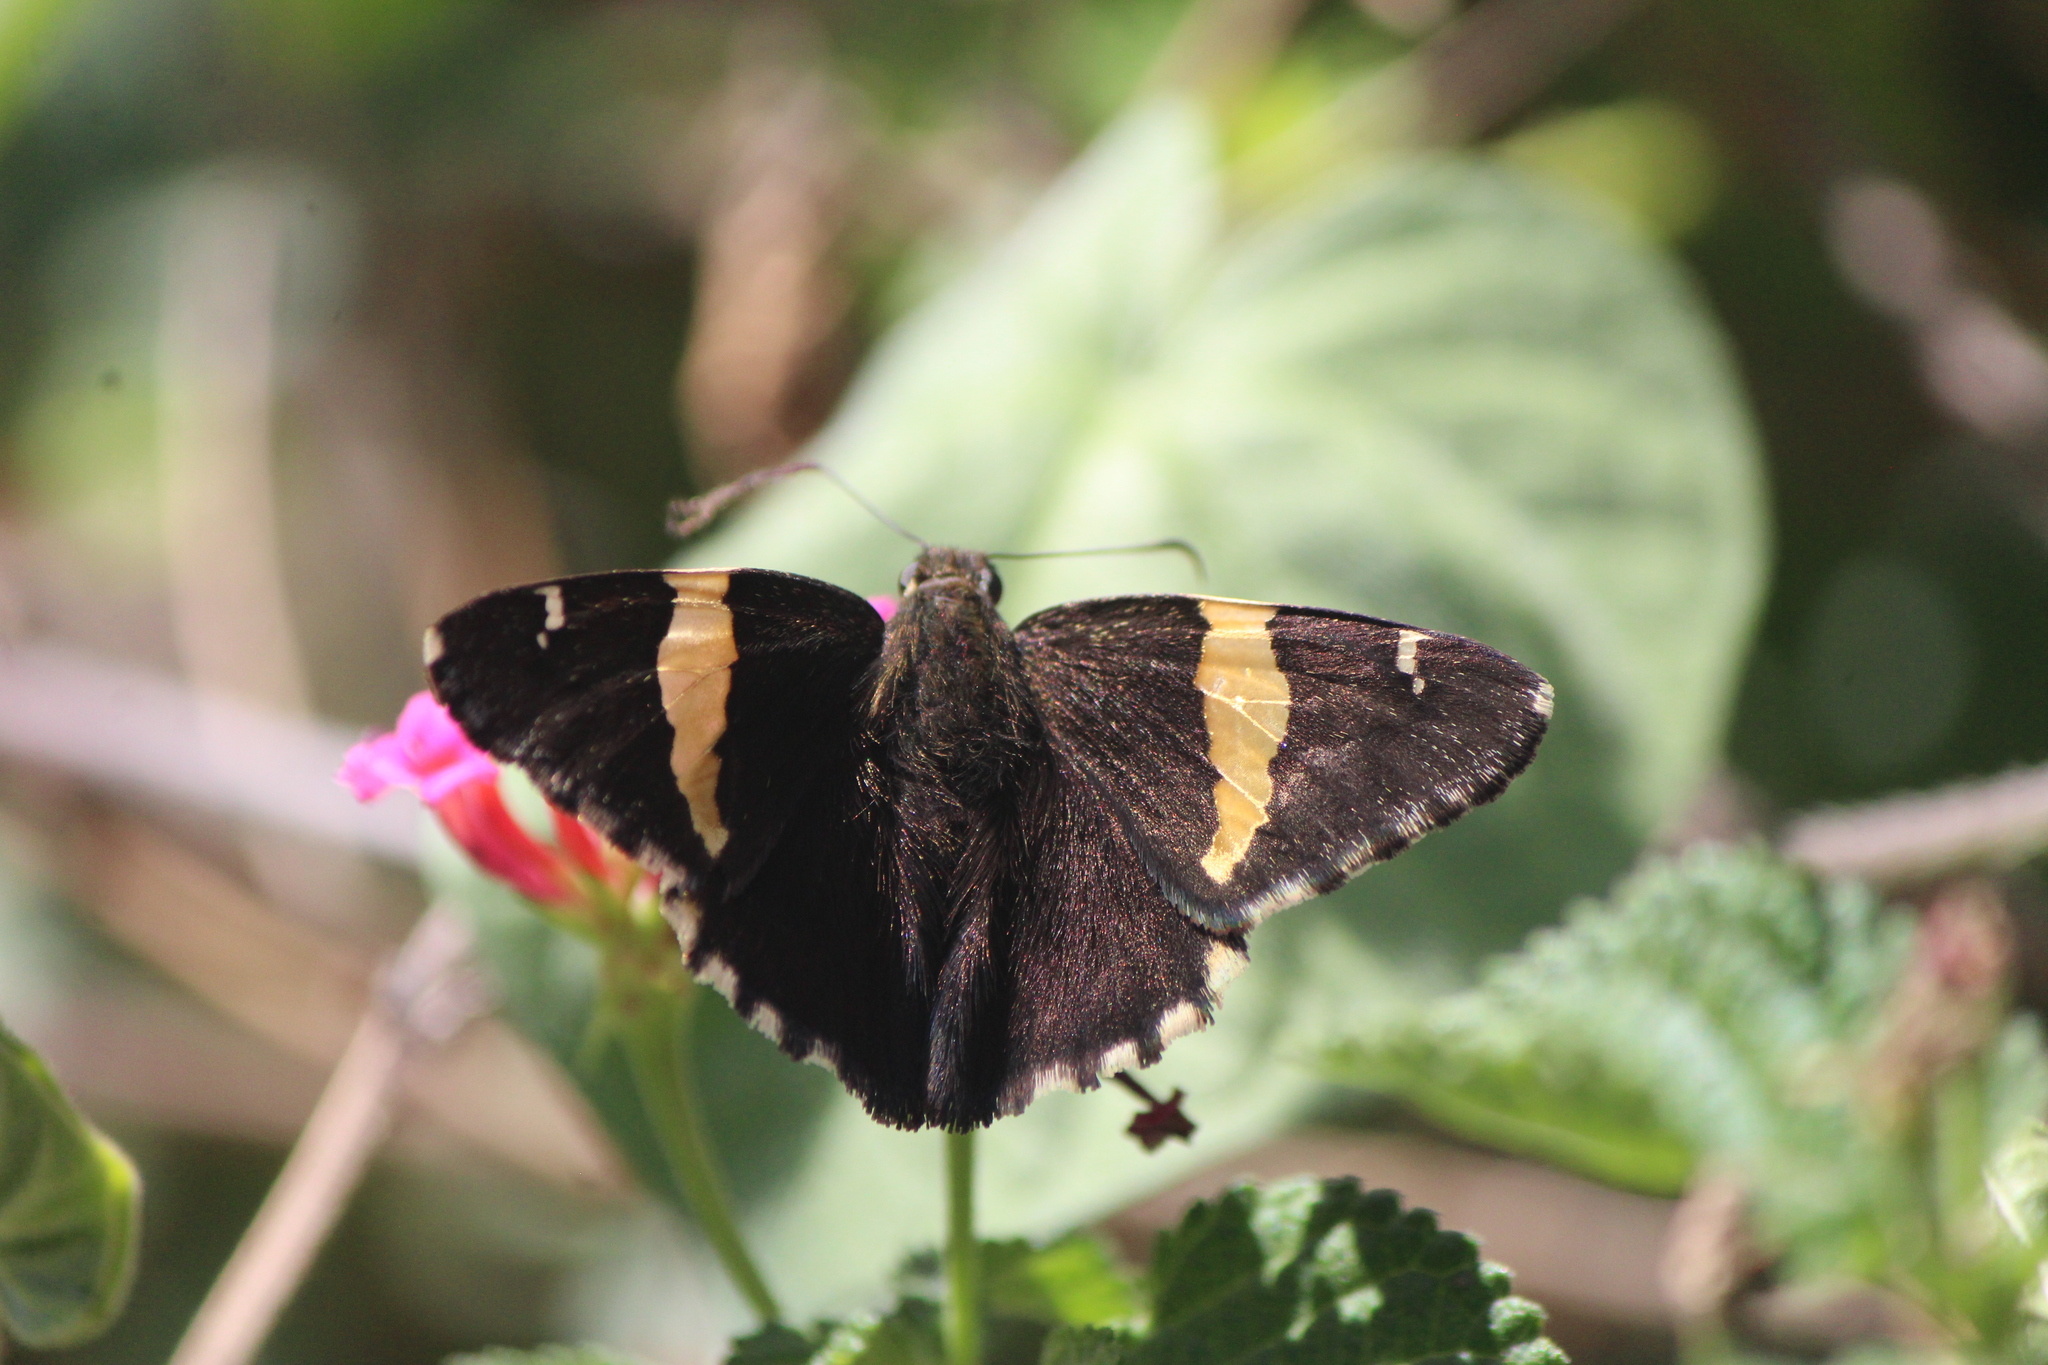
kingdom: Animalia
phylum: Arthropoda
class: Arachnida
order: Scorpiones
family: Bothriuridae
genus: Telegonus
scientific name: Telegonus cellus
